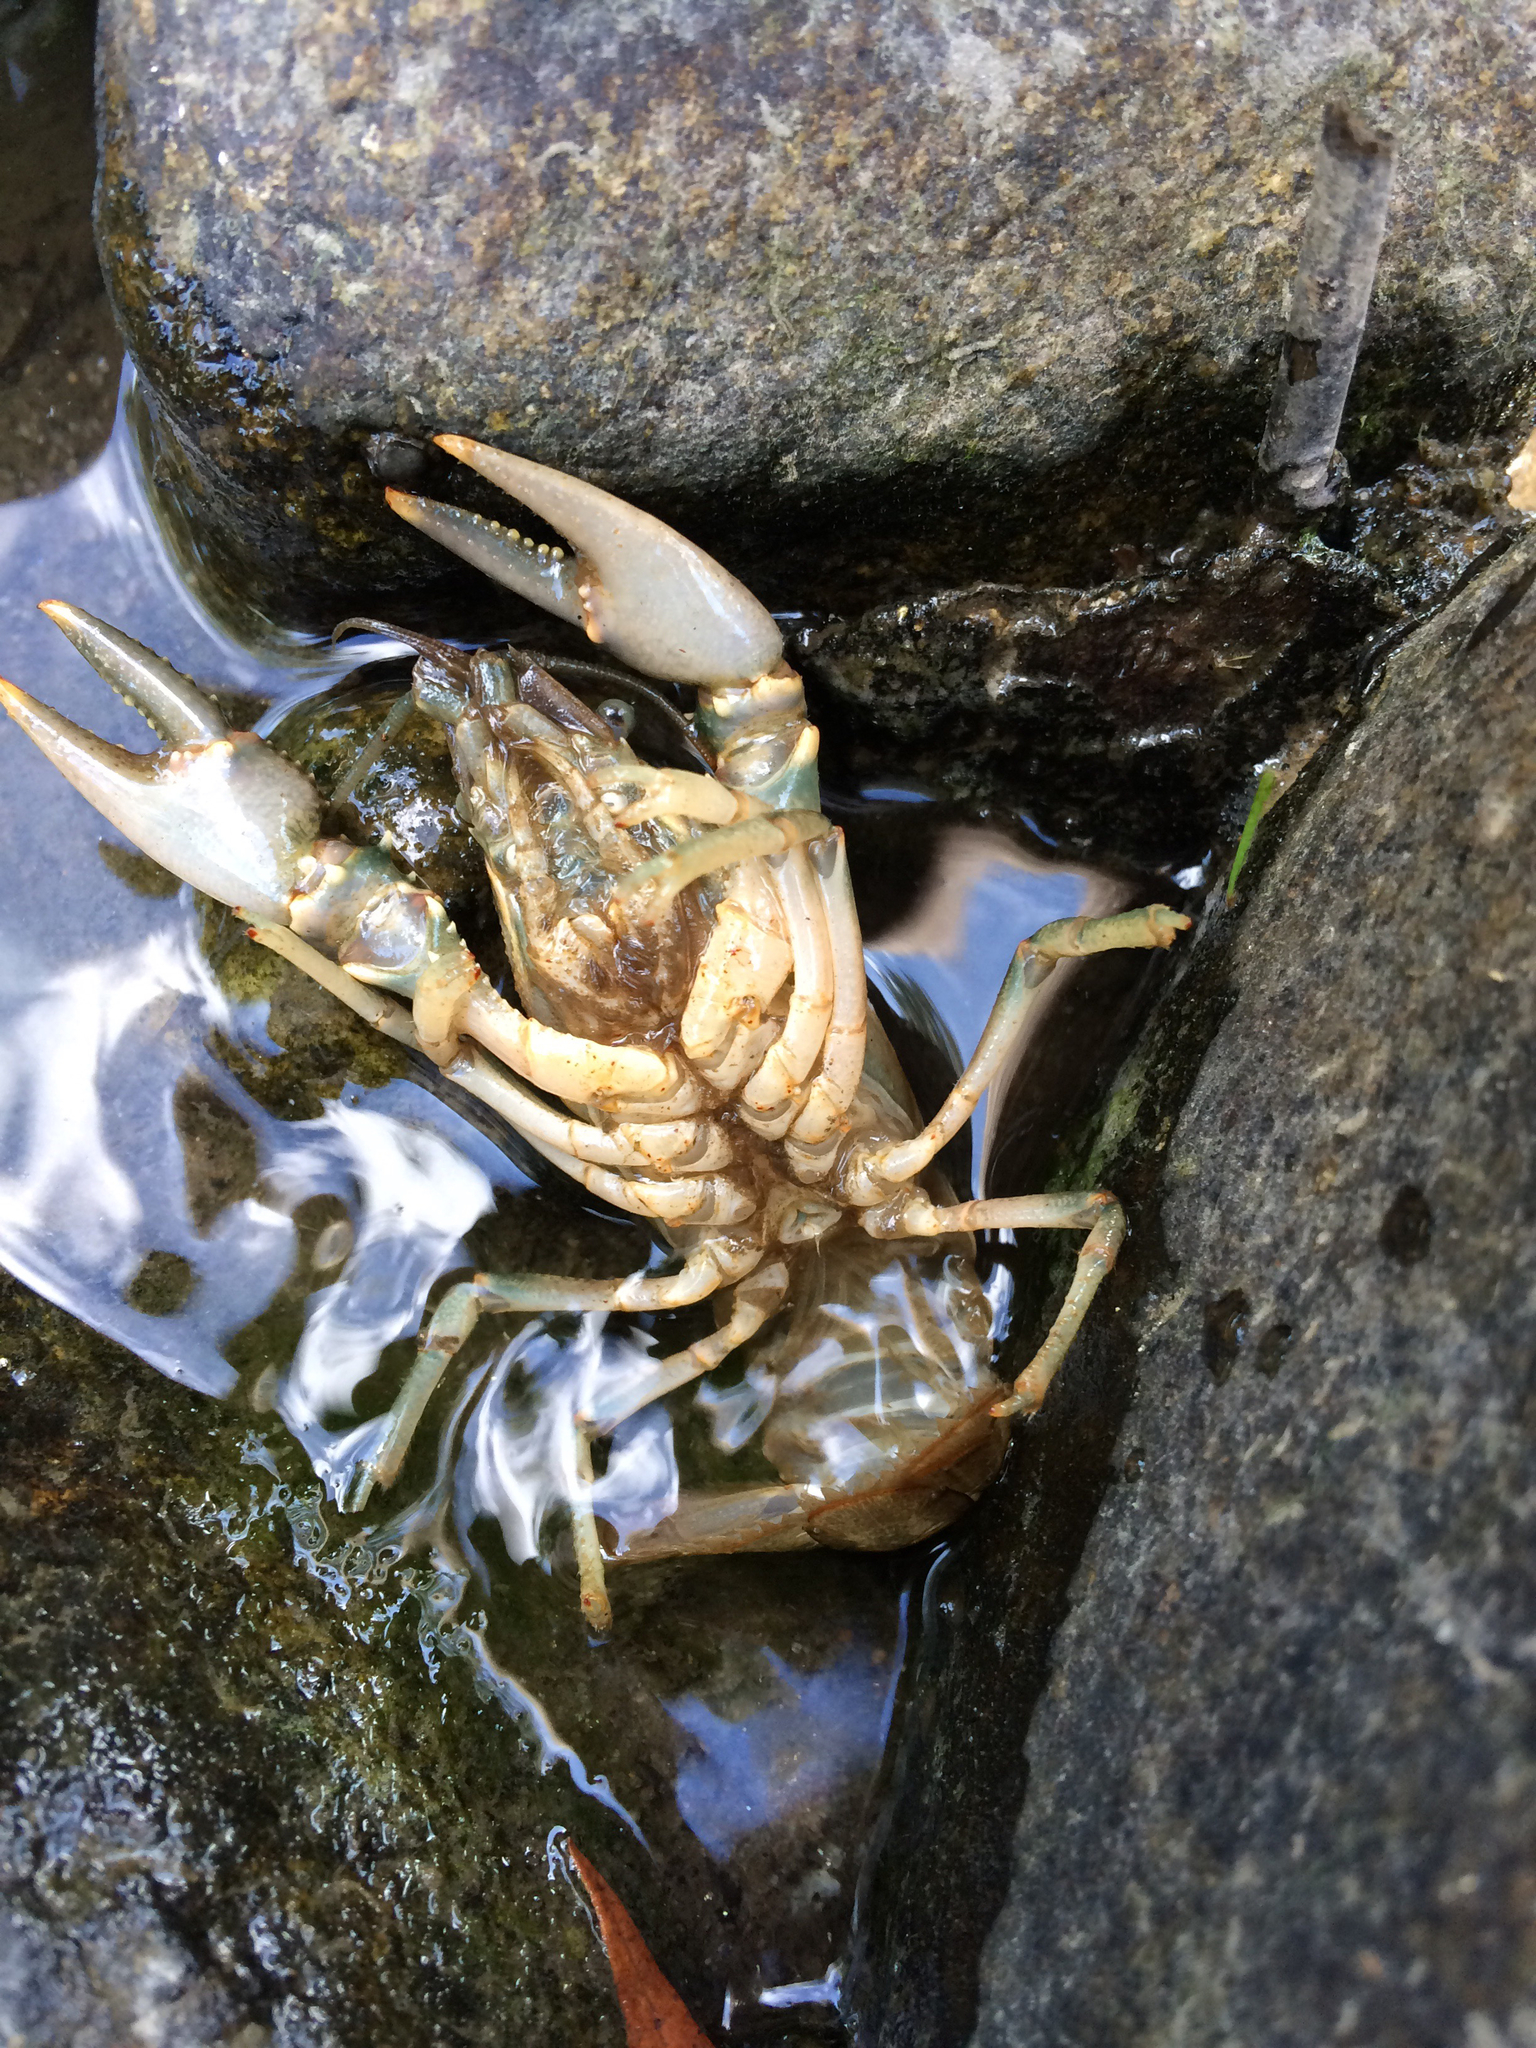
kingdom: Animalia
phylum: Arthropoda
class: Malacostraca
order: Decapoda
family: Cambaridae
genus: Faxonius
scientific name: Faxonius virilis
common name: Virile crayfish
